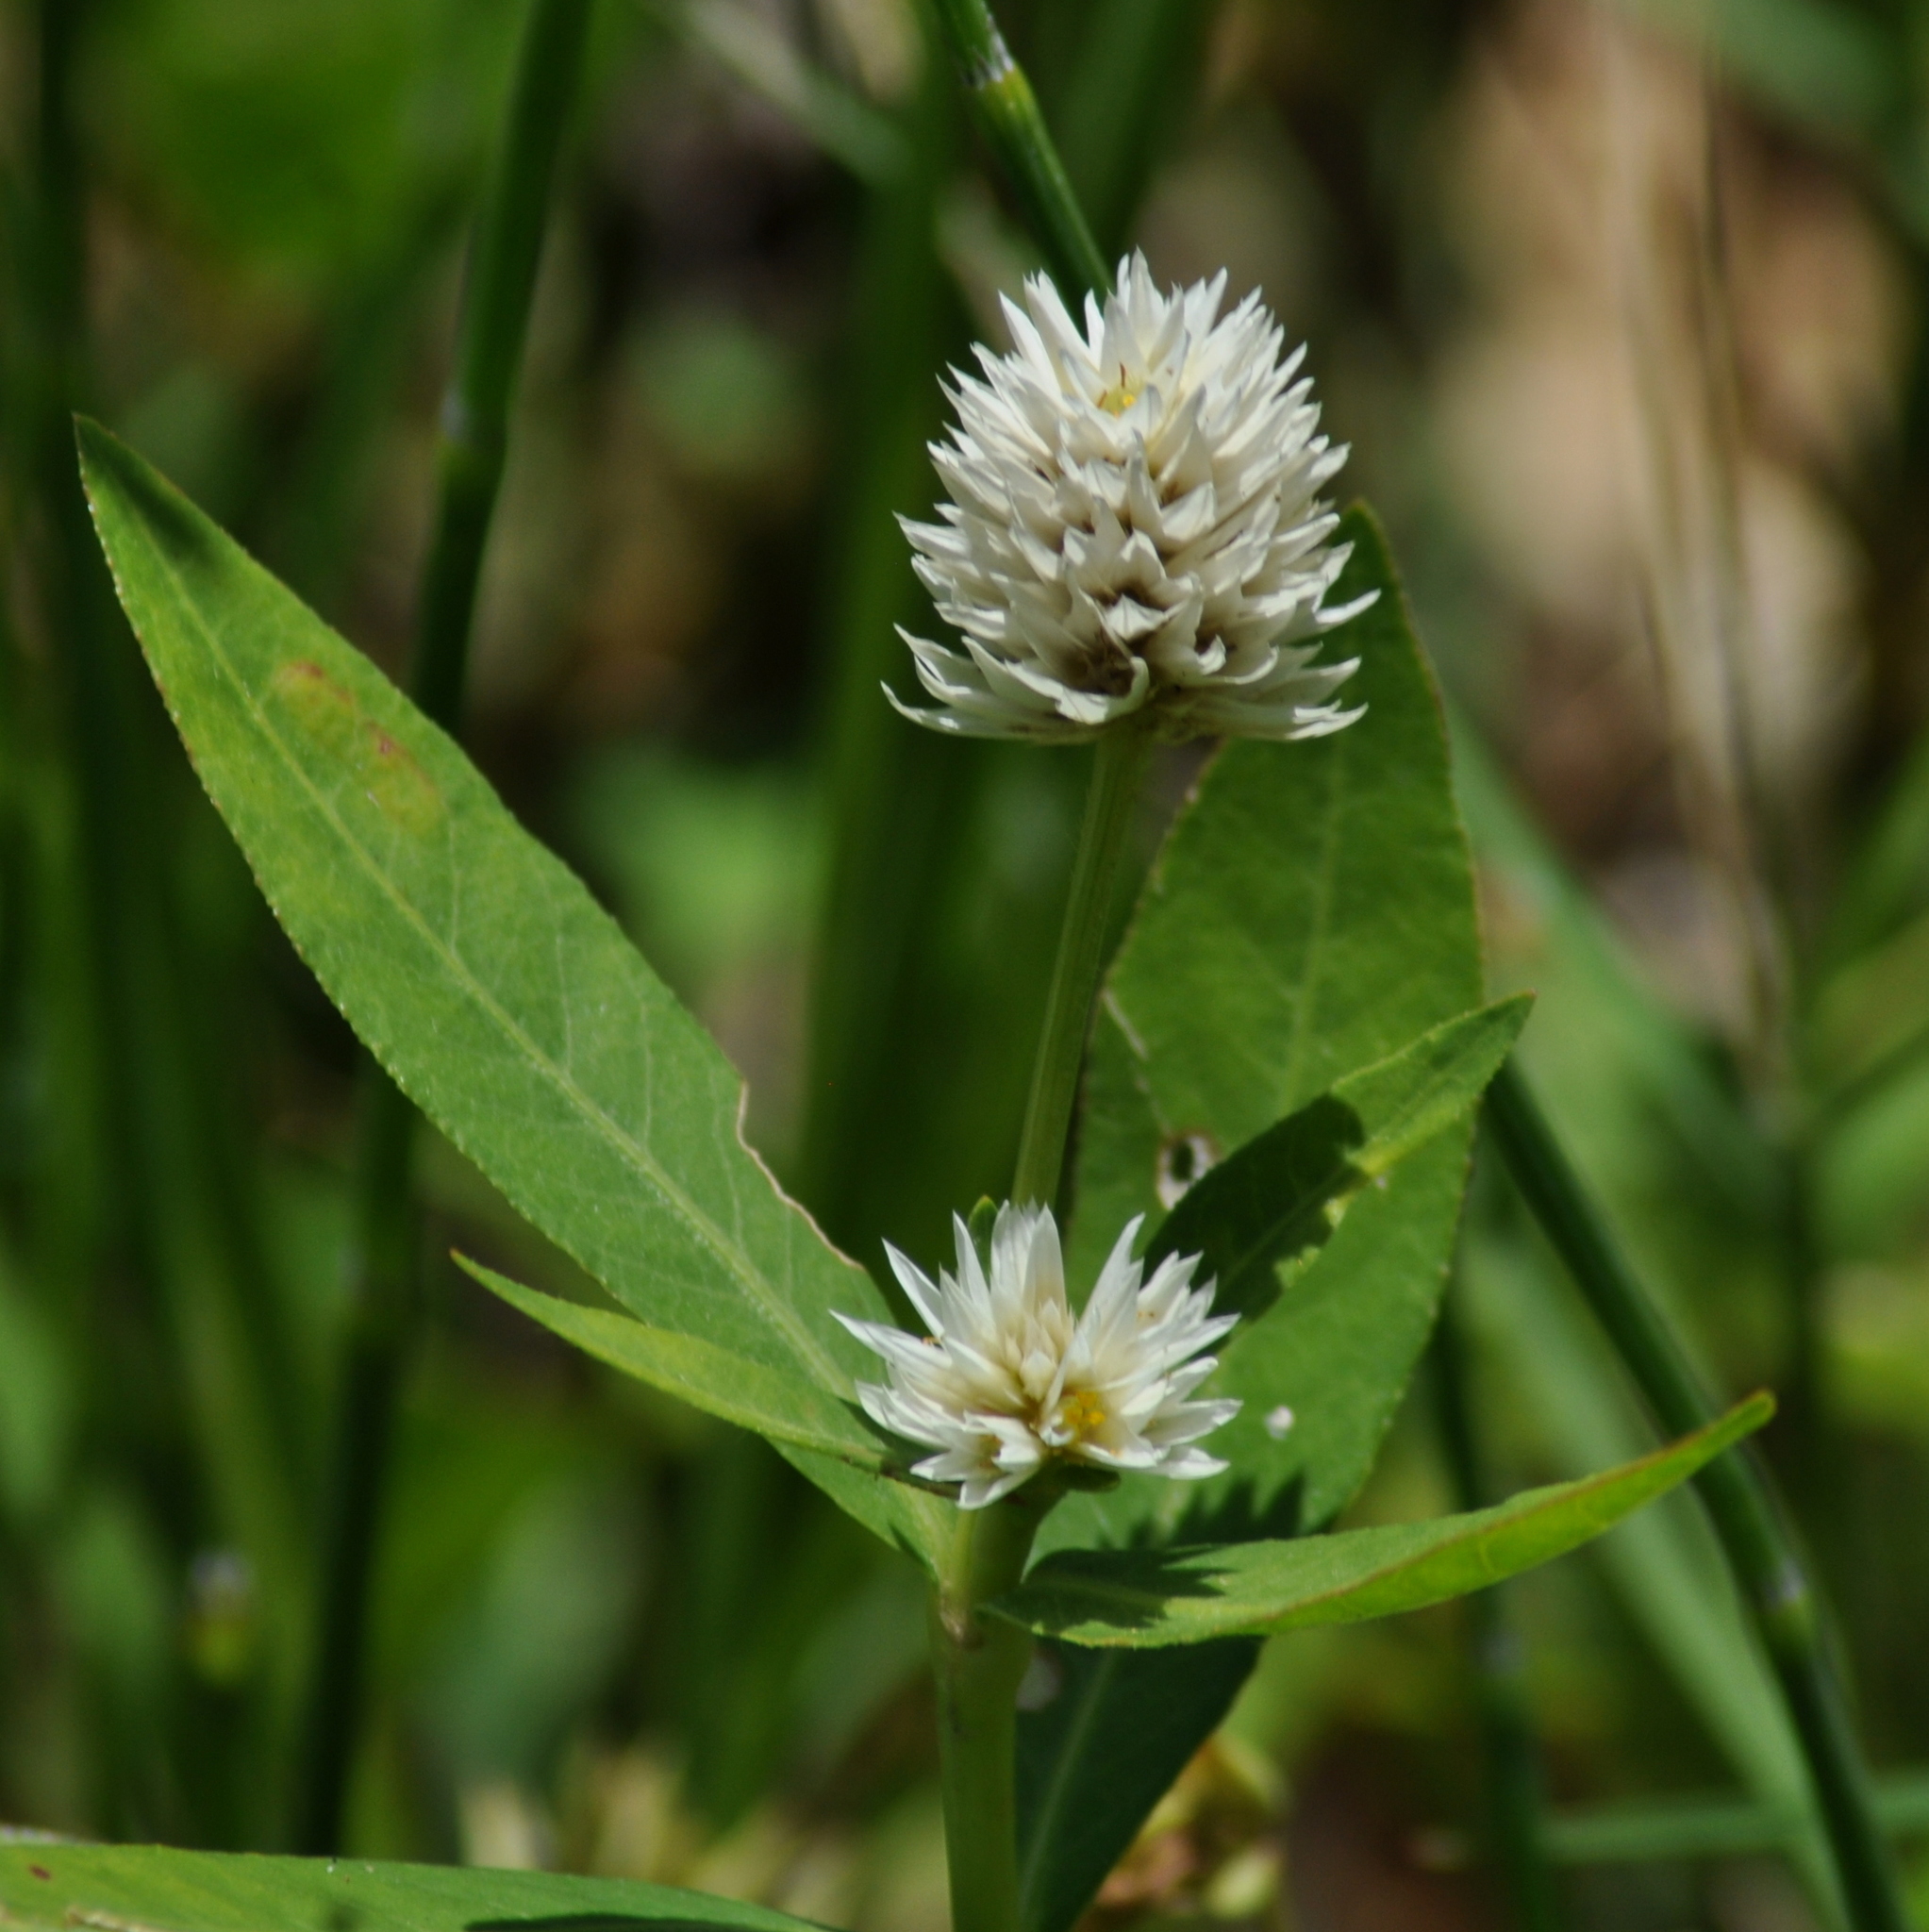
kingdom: Plantae
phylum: Tracheophyta
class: Magnoliopsida
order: Caryophyllales
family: Amaranthaceae
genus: Alternanthera
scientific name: Alternanthera philoxeroides
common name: Alligatorweed
